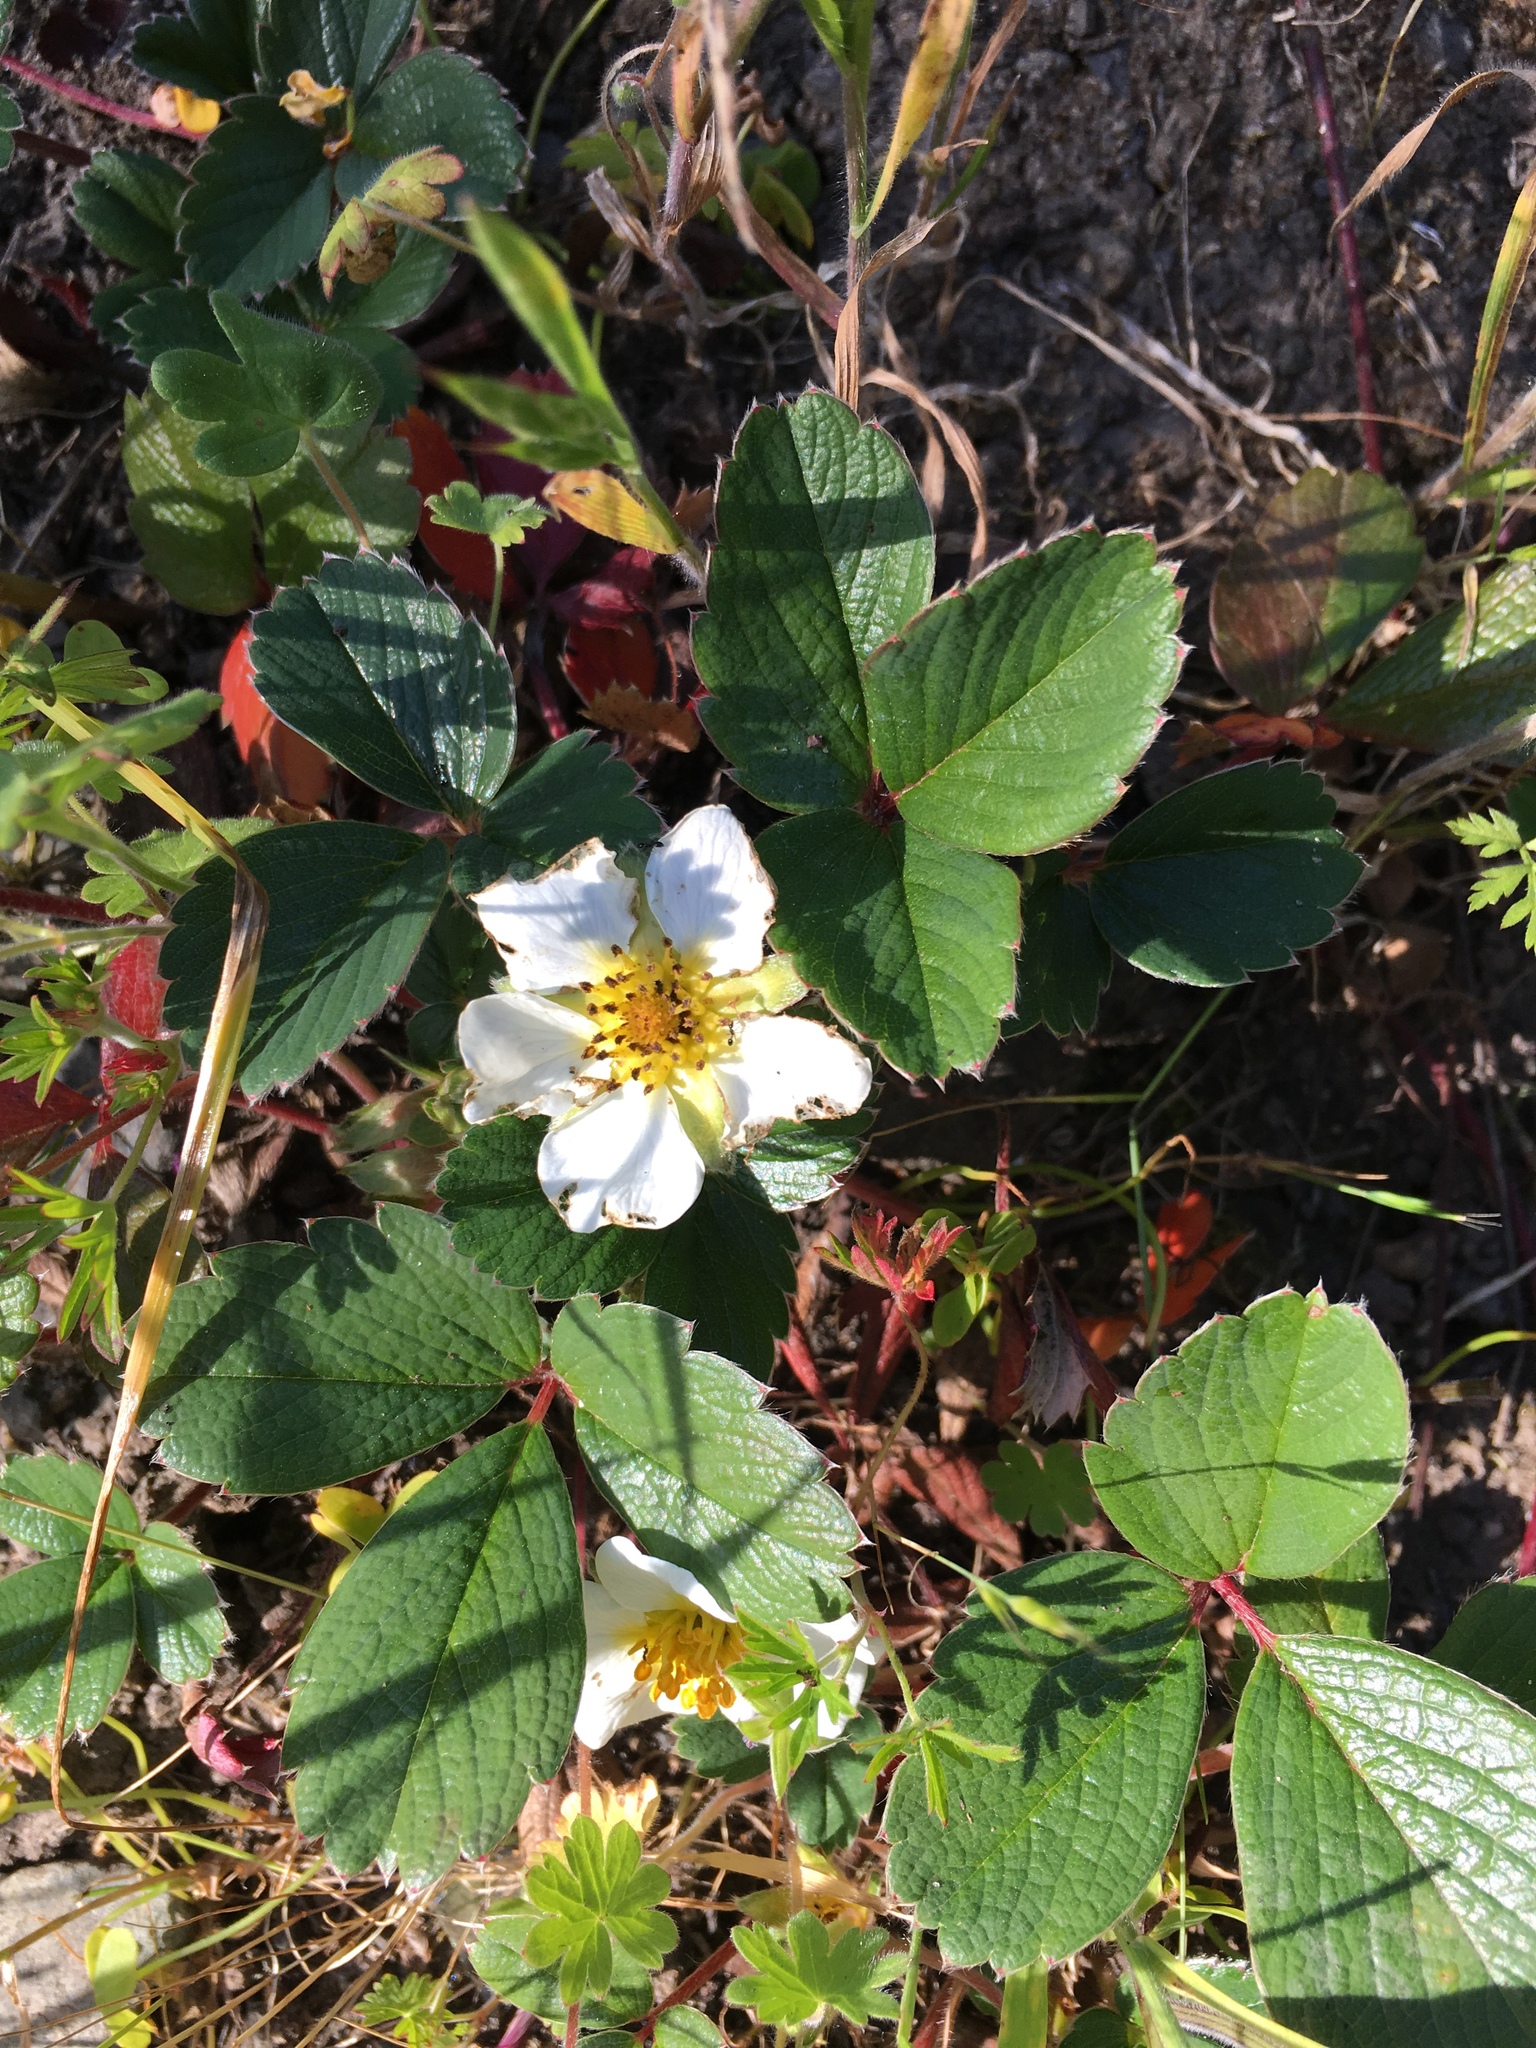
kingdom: Plantae
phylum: Tracheophyta
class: Magnoliopsida
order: Rosales
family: Rosaceae
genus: Fragaria
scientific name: Fragaria chiloensis
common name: Beach strawberry
